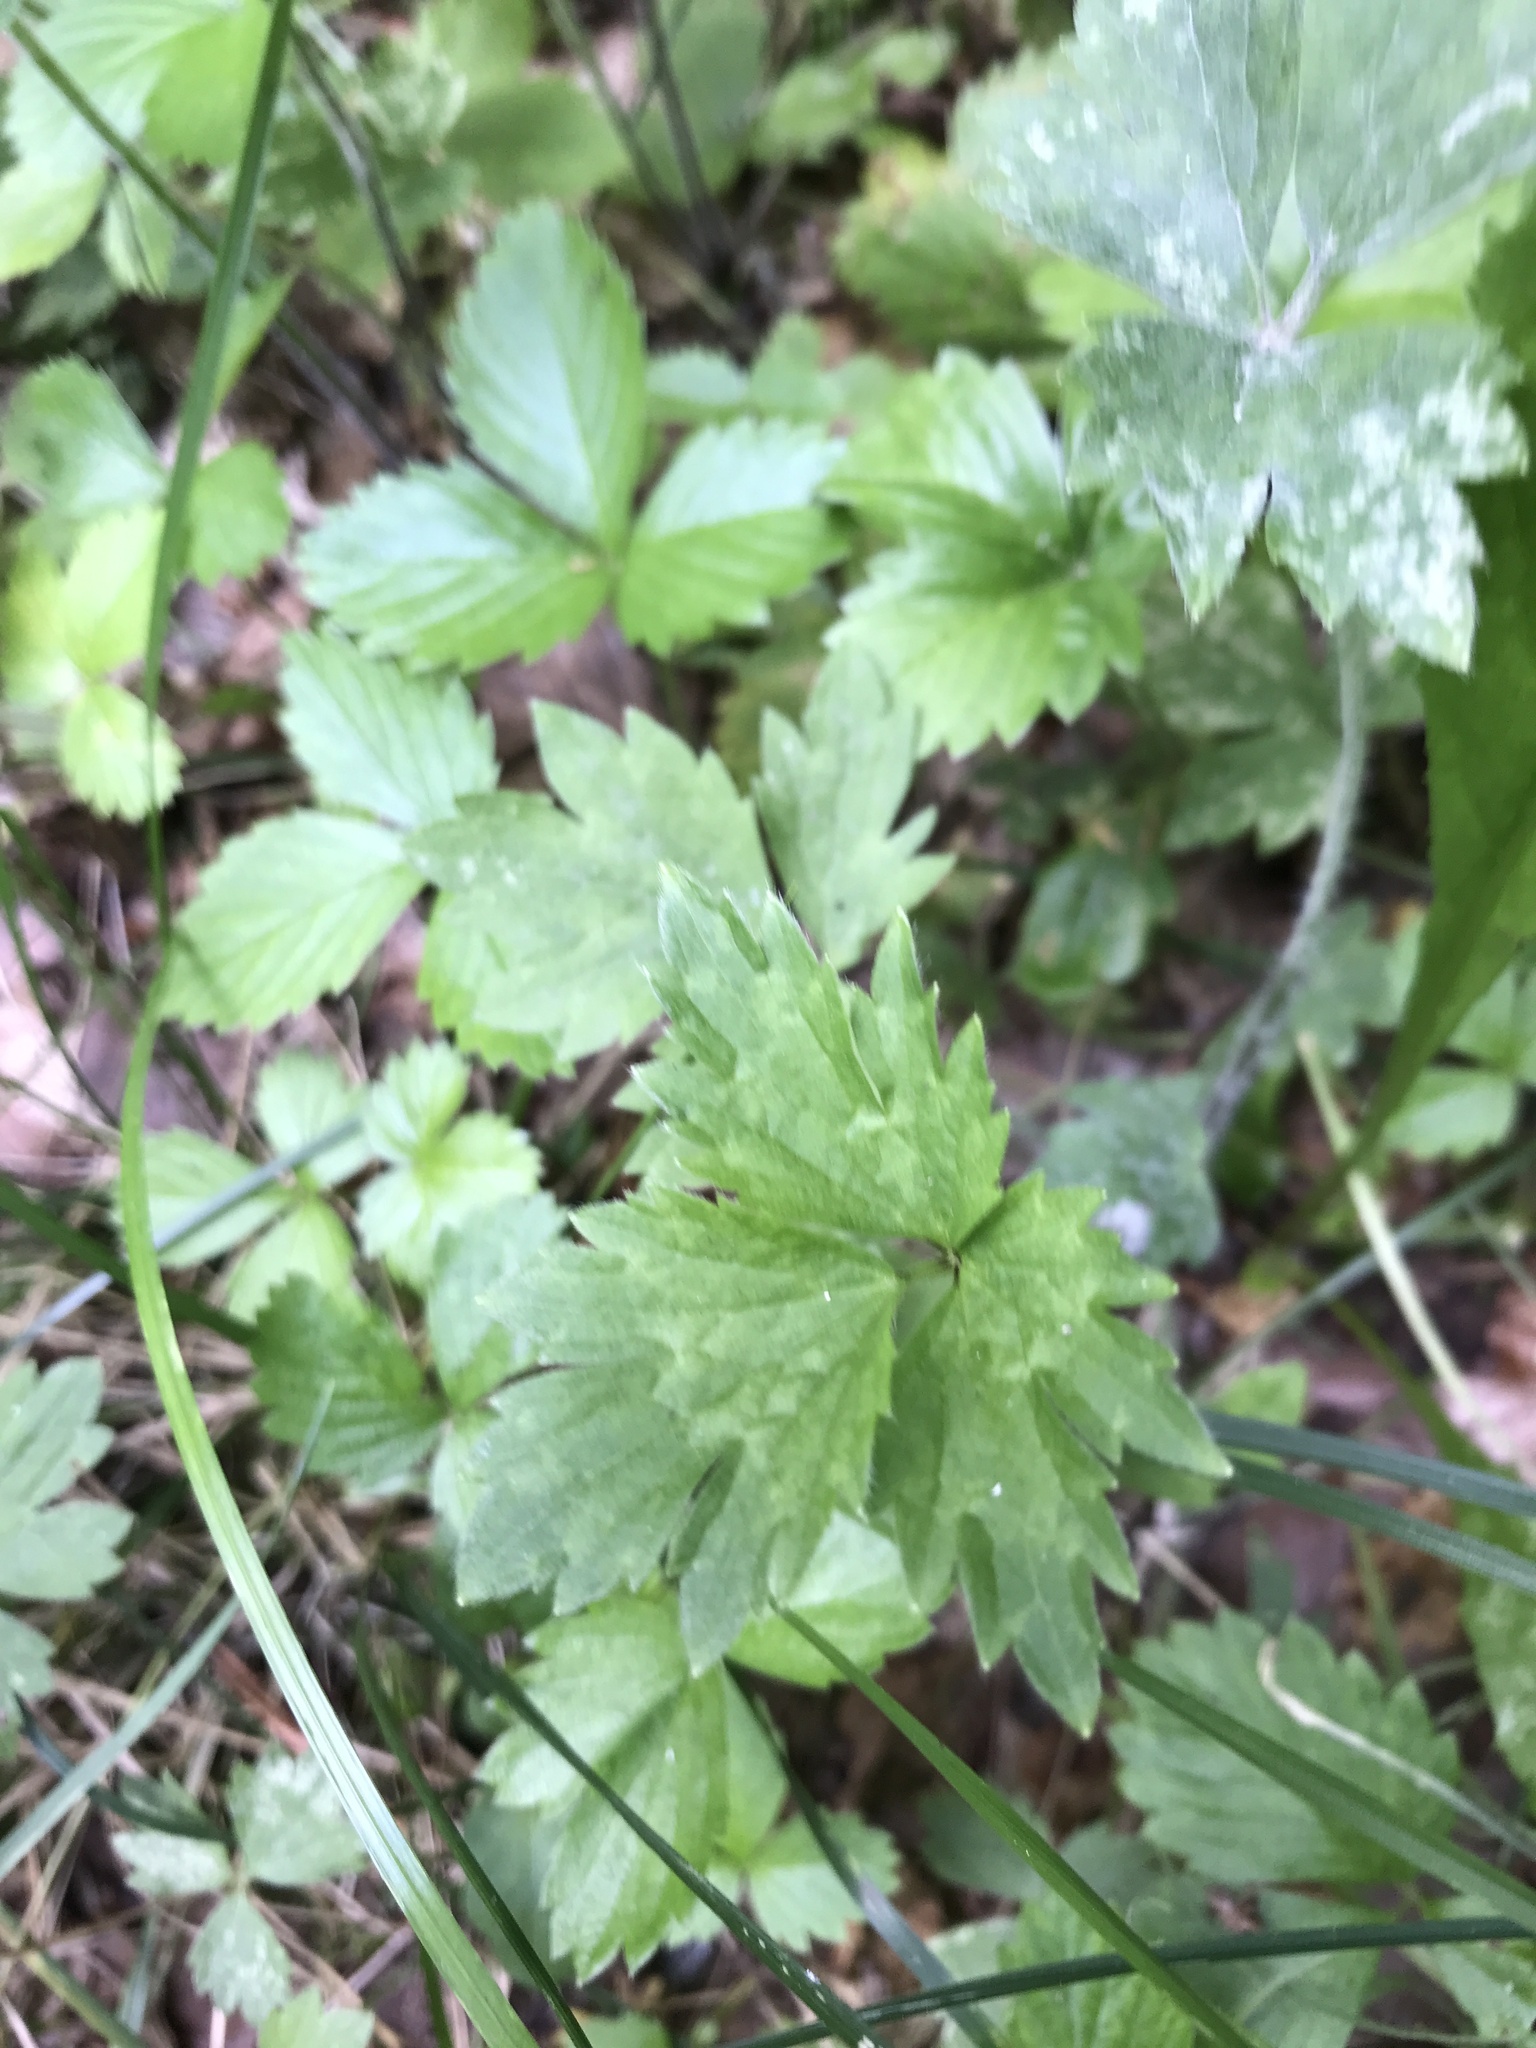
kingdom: Fungi
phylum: Ascomycota
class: Leotiomycetes
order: Helotiales
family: Erysiphaceae
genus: Erysiphe
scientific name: Erysiphe aquilegiae
